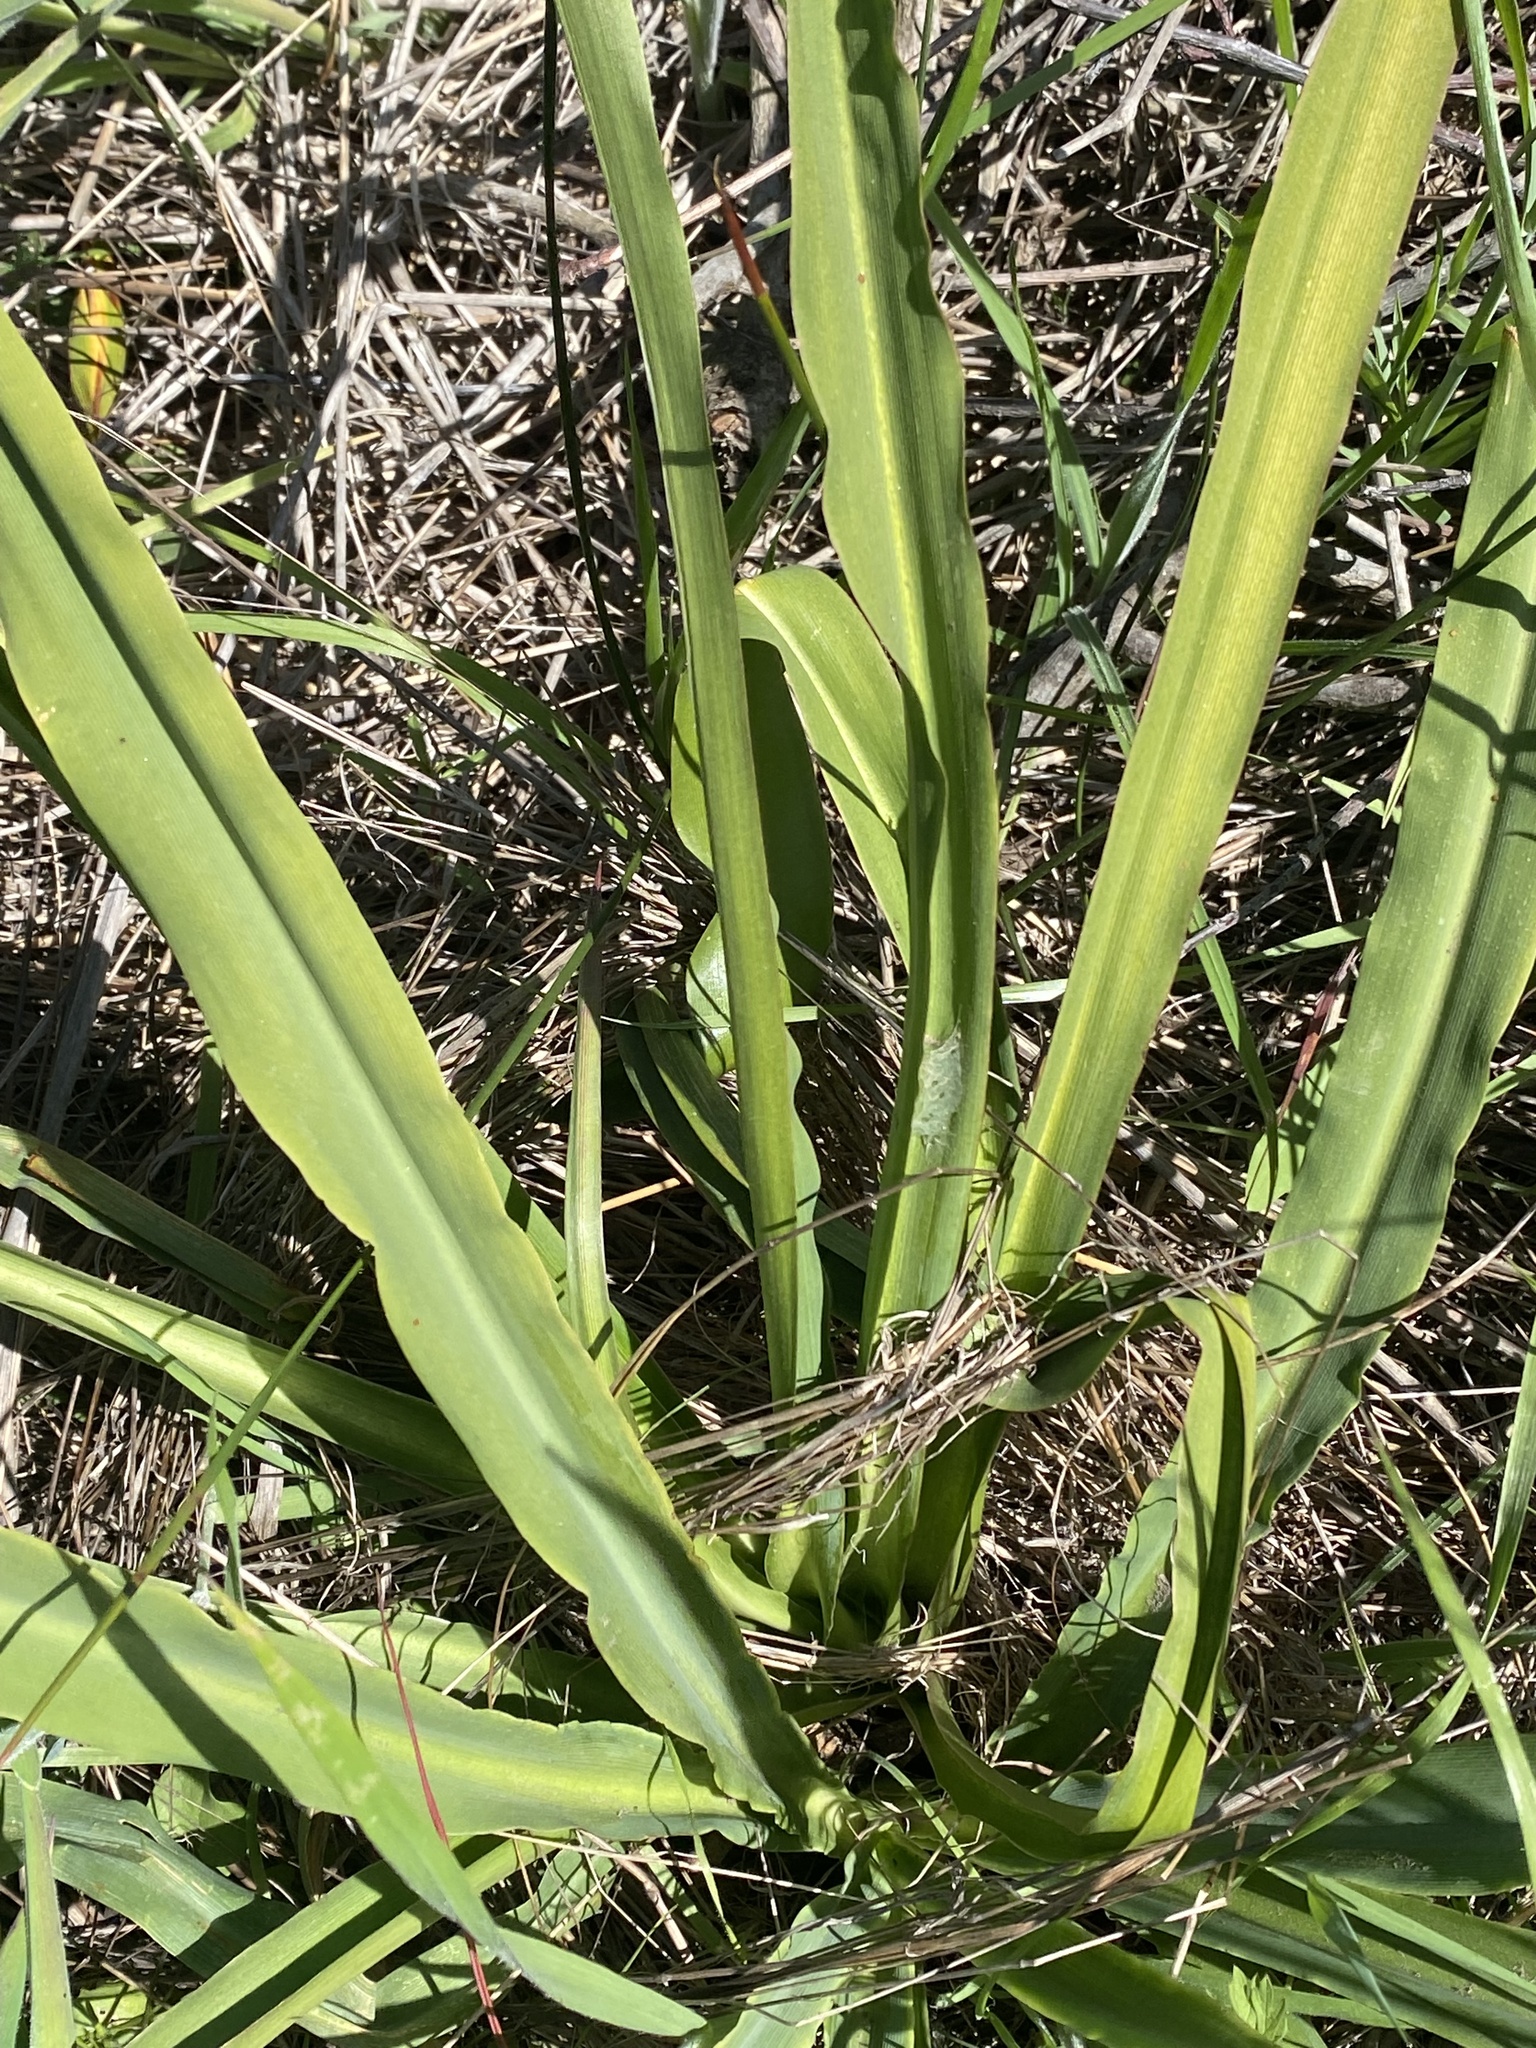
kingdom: Plantae
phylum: Tracheophyta
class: Liliopsida
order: Asparagales
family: Asparagaceae
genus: Chlorogalum
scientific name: Chlorogalum pomeridianum
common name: Amole
